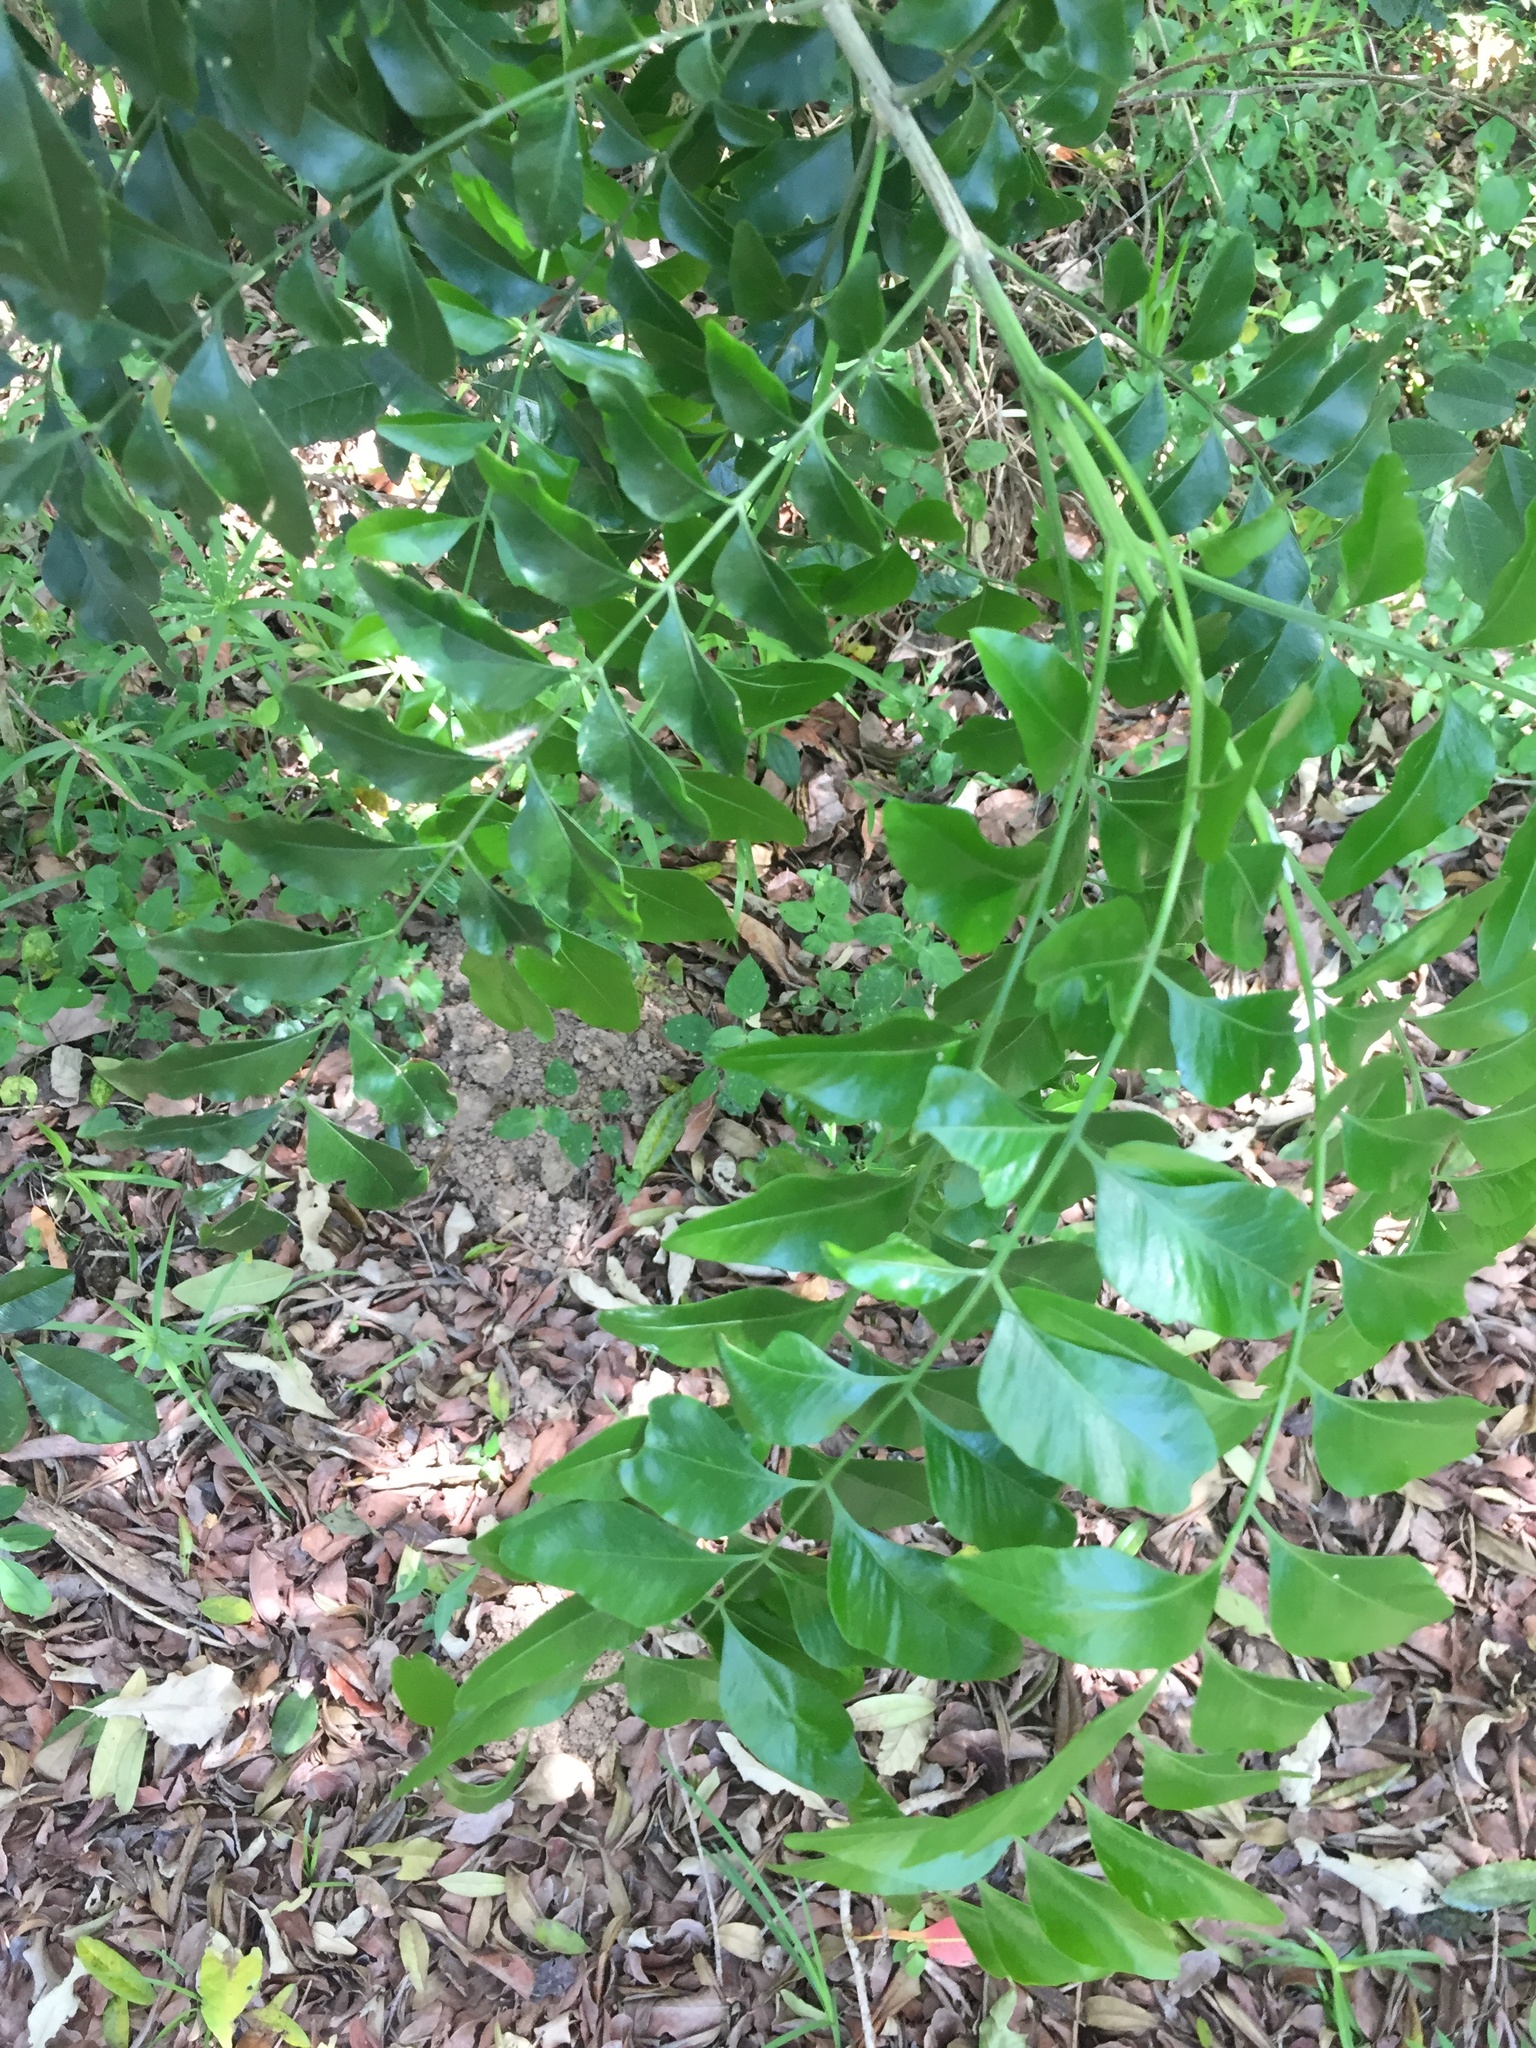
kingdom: Plantae
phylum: Tracheophyta
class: Magnoliopsida
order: Sapindales
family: Rutaceae
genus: Ptaeroxylon
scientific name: Ptaeroxylon obliquum
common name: Sneezewood
